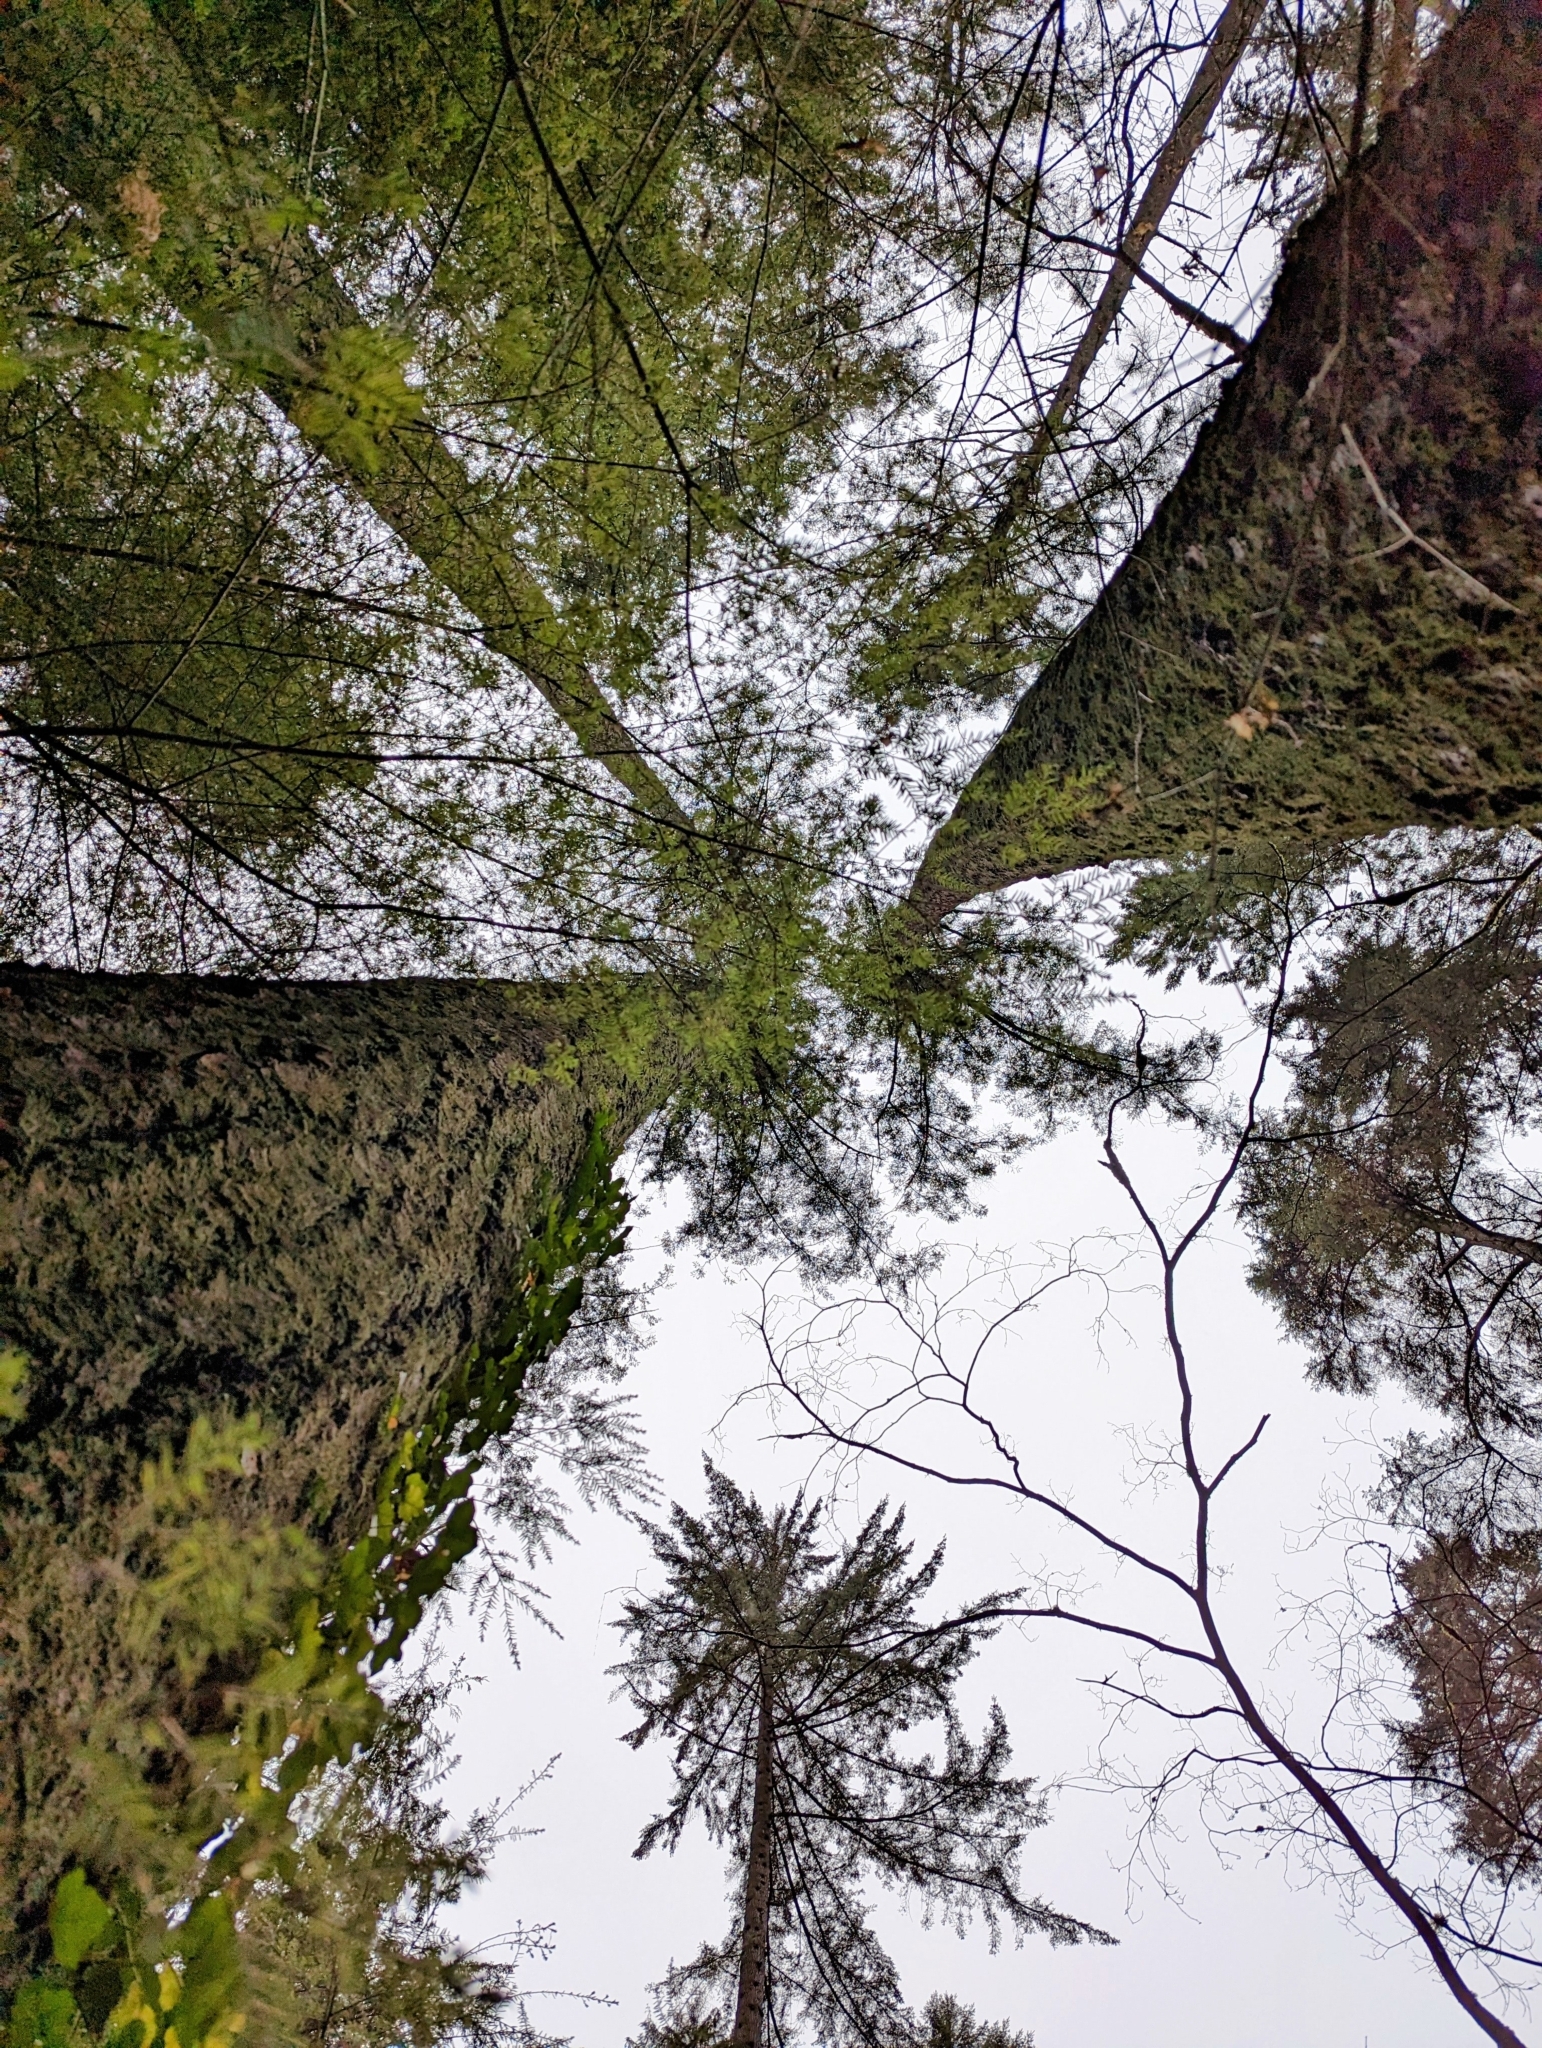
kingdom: Plantae
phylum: Tracheophyta
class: Pinopsida
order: Pinales
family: Pinaceae
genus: Pseudotsuga
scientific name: Pseudotsuga menziesii
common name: Douglas fir
